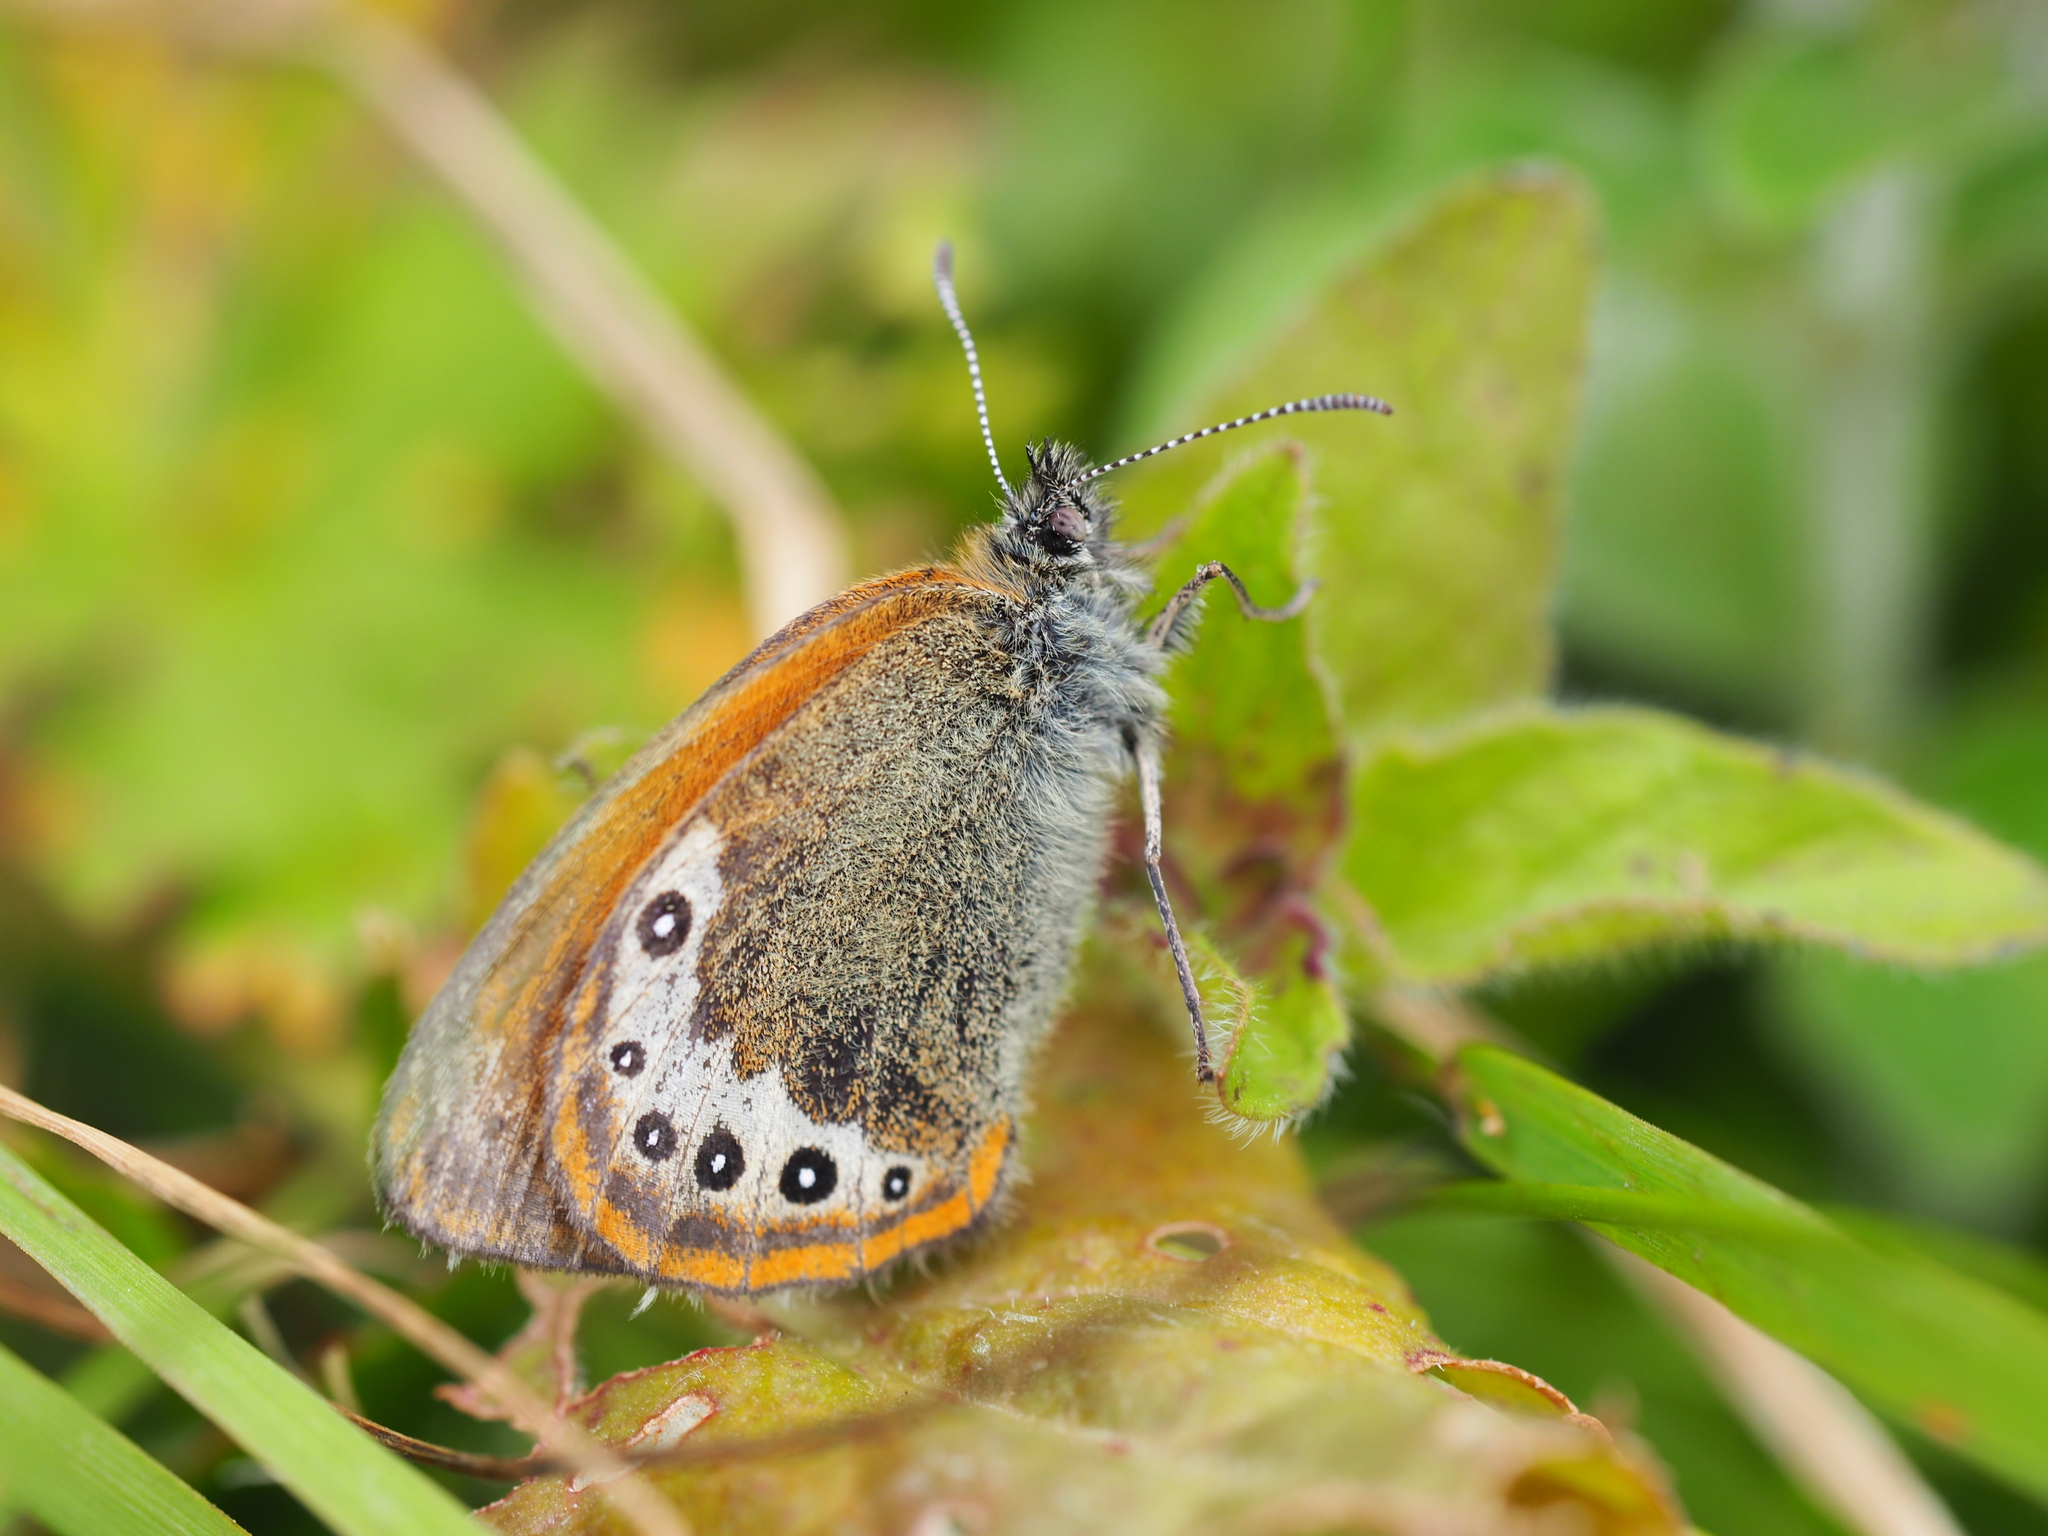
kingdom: Animalia
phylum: Arthropoda
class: Insecta
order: Lepidoptera
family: Nymphalidae
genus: Coenonympha
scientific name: Coenonympha
